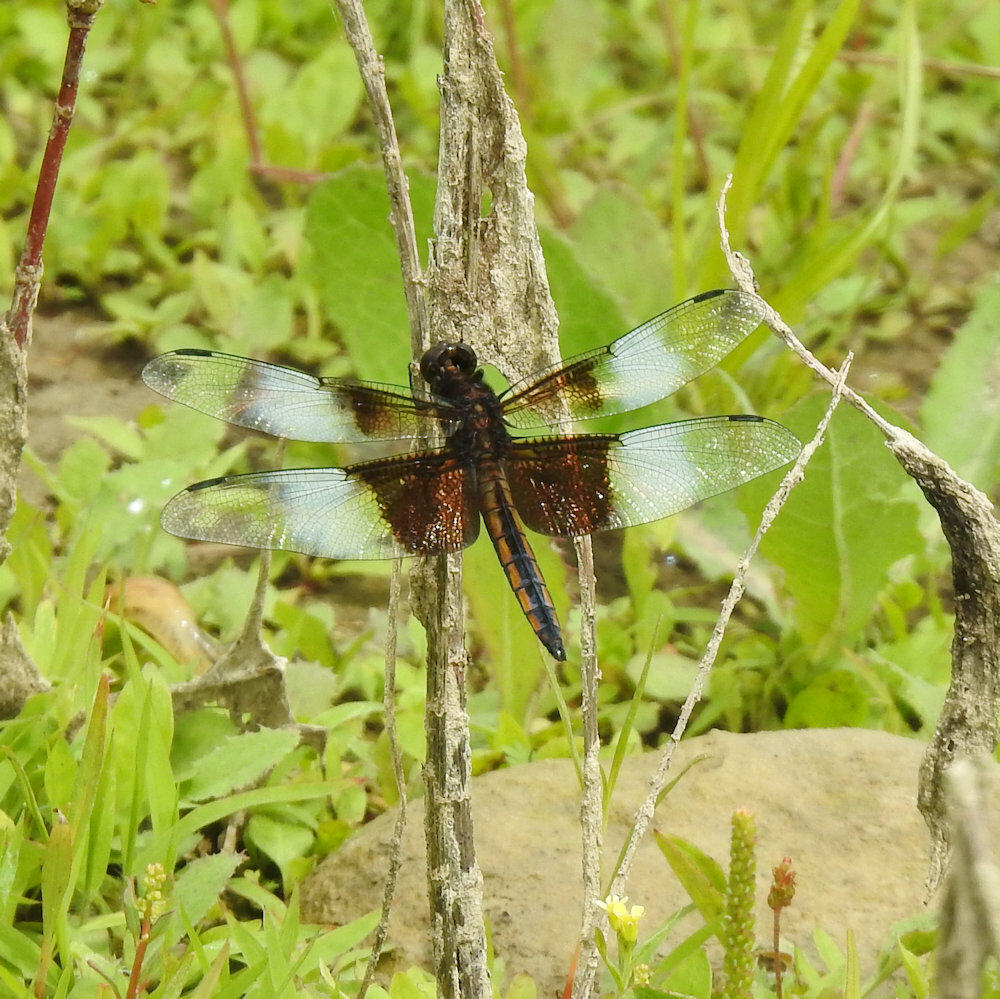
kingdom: Animalia
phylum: Arthropoda
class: Insecta
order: Odonata
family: Libellulidae
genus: Libellula
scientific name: Libellula luctuosa
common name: Widow skimmer
